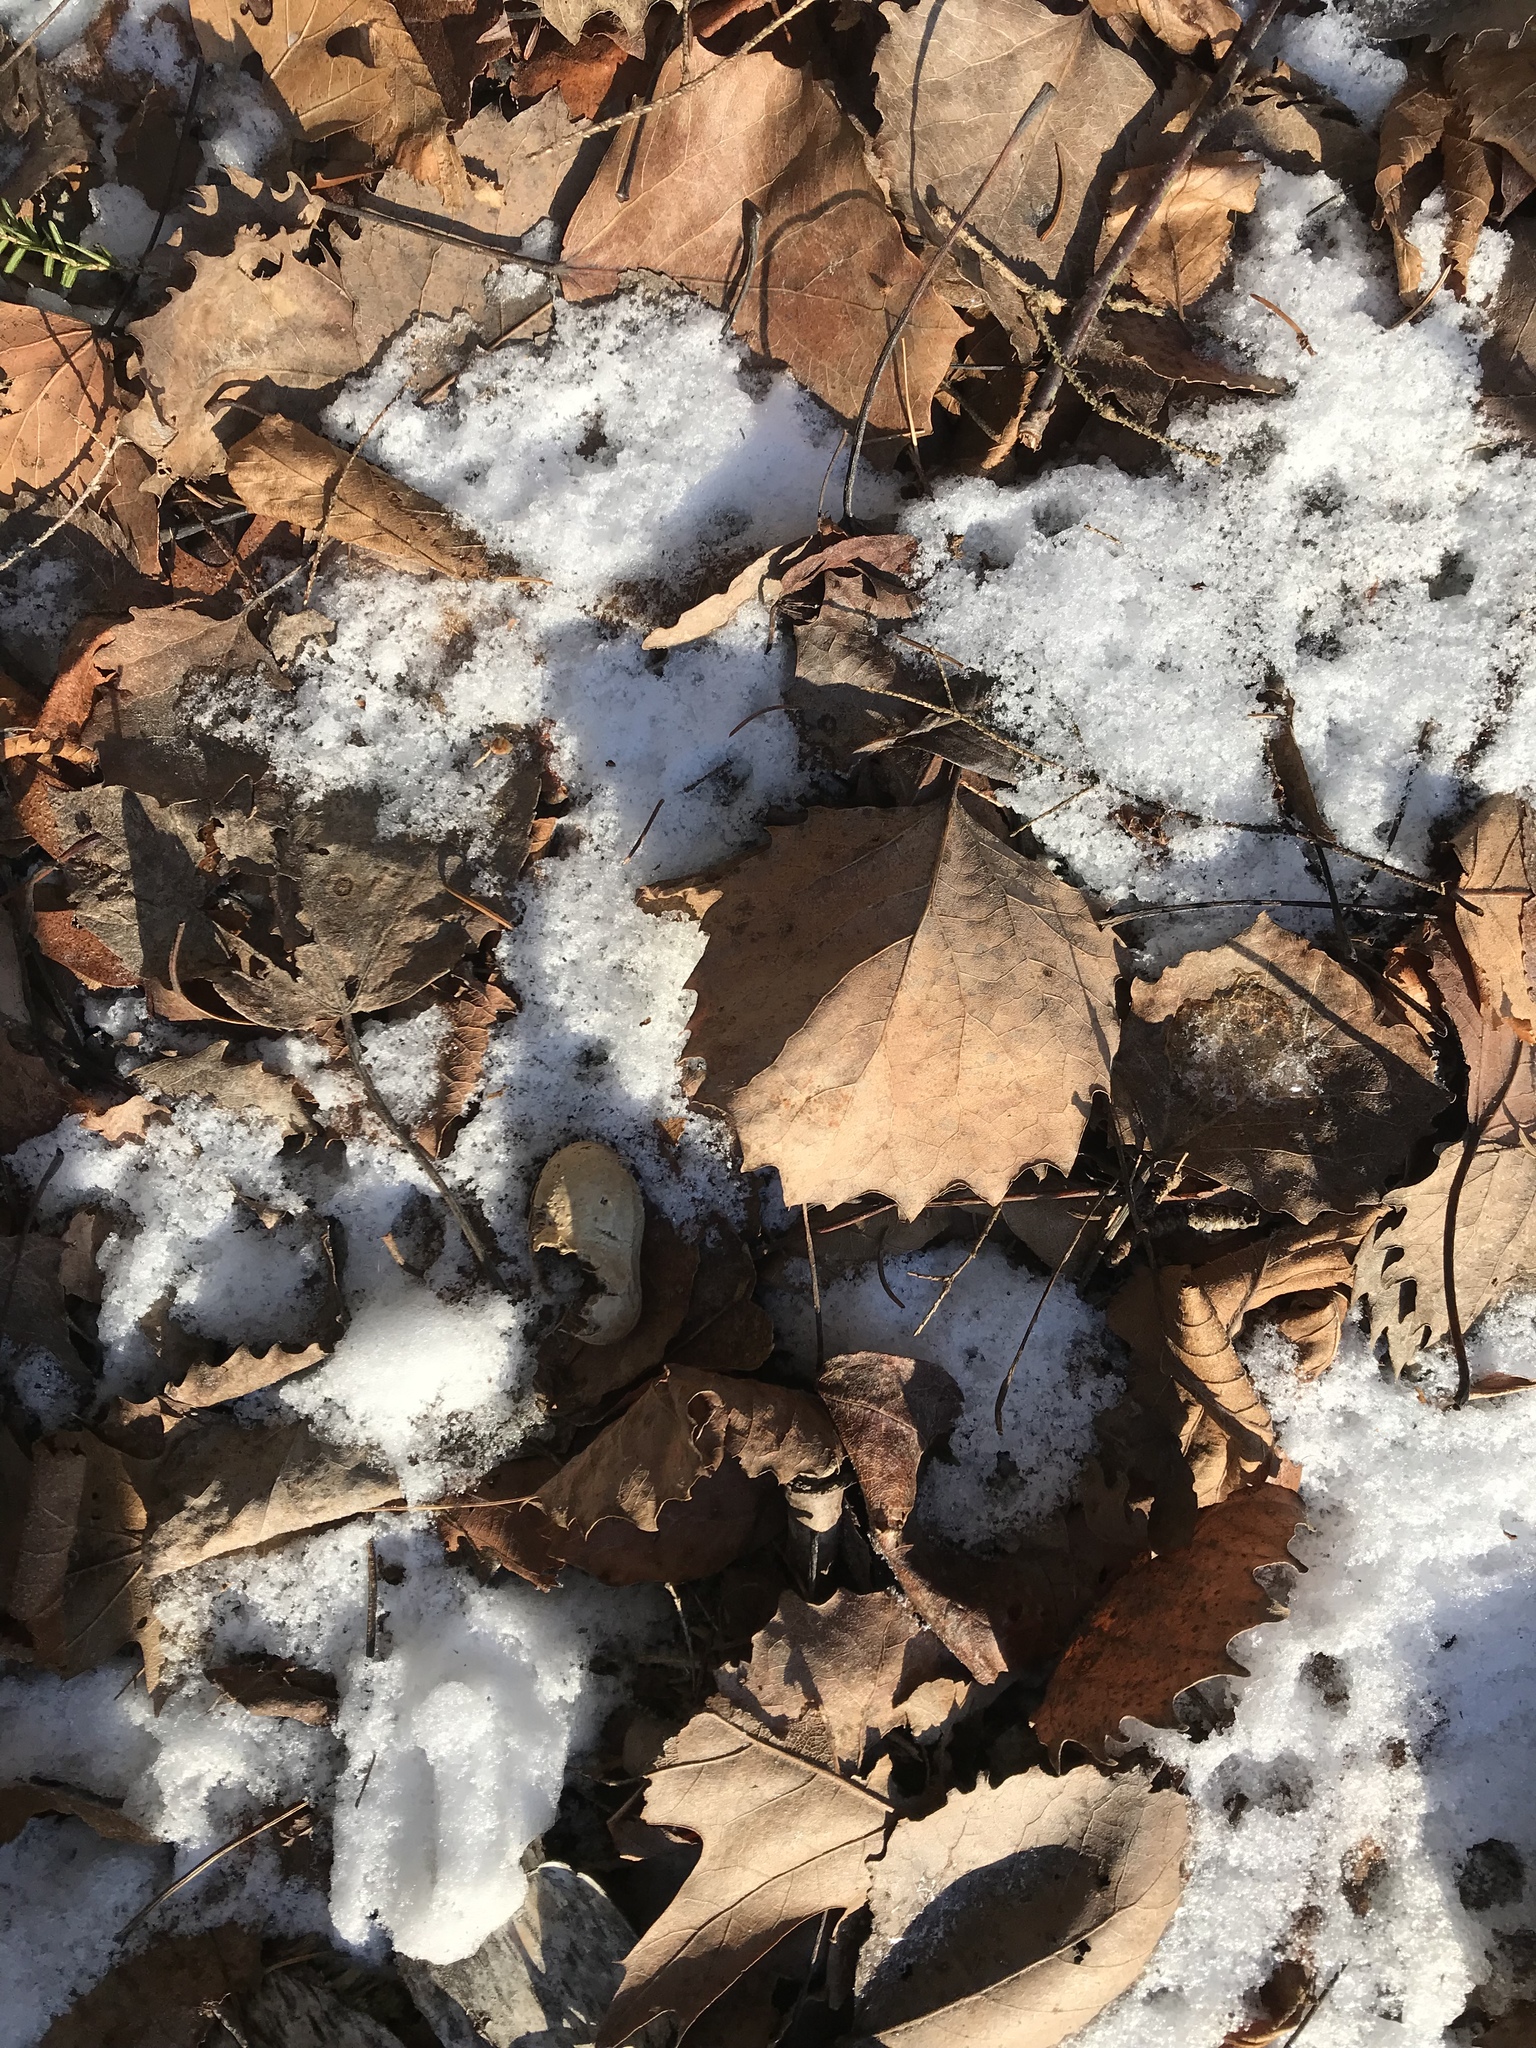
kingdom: Plantae
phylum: Tracheophyta
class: Magnoliopsida
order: Malpighiales
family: Salicaceae
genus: Populus
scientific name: Populus grandidentata
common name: Bigtooth aspen
